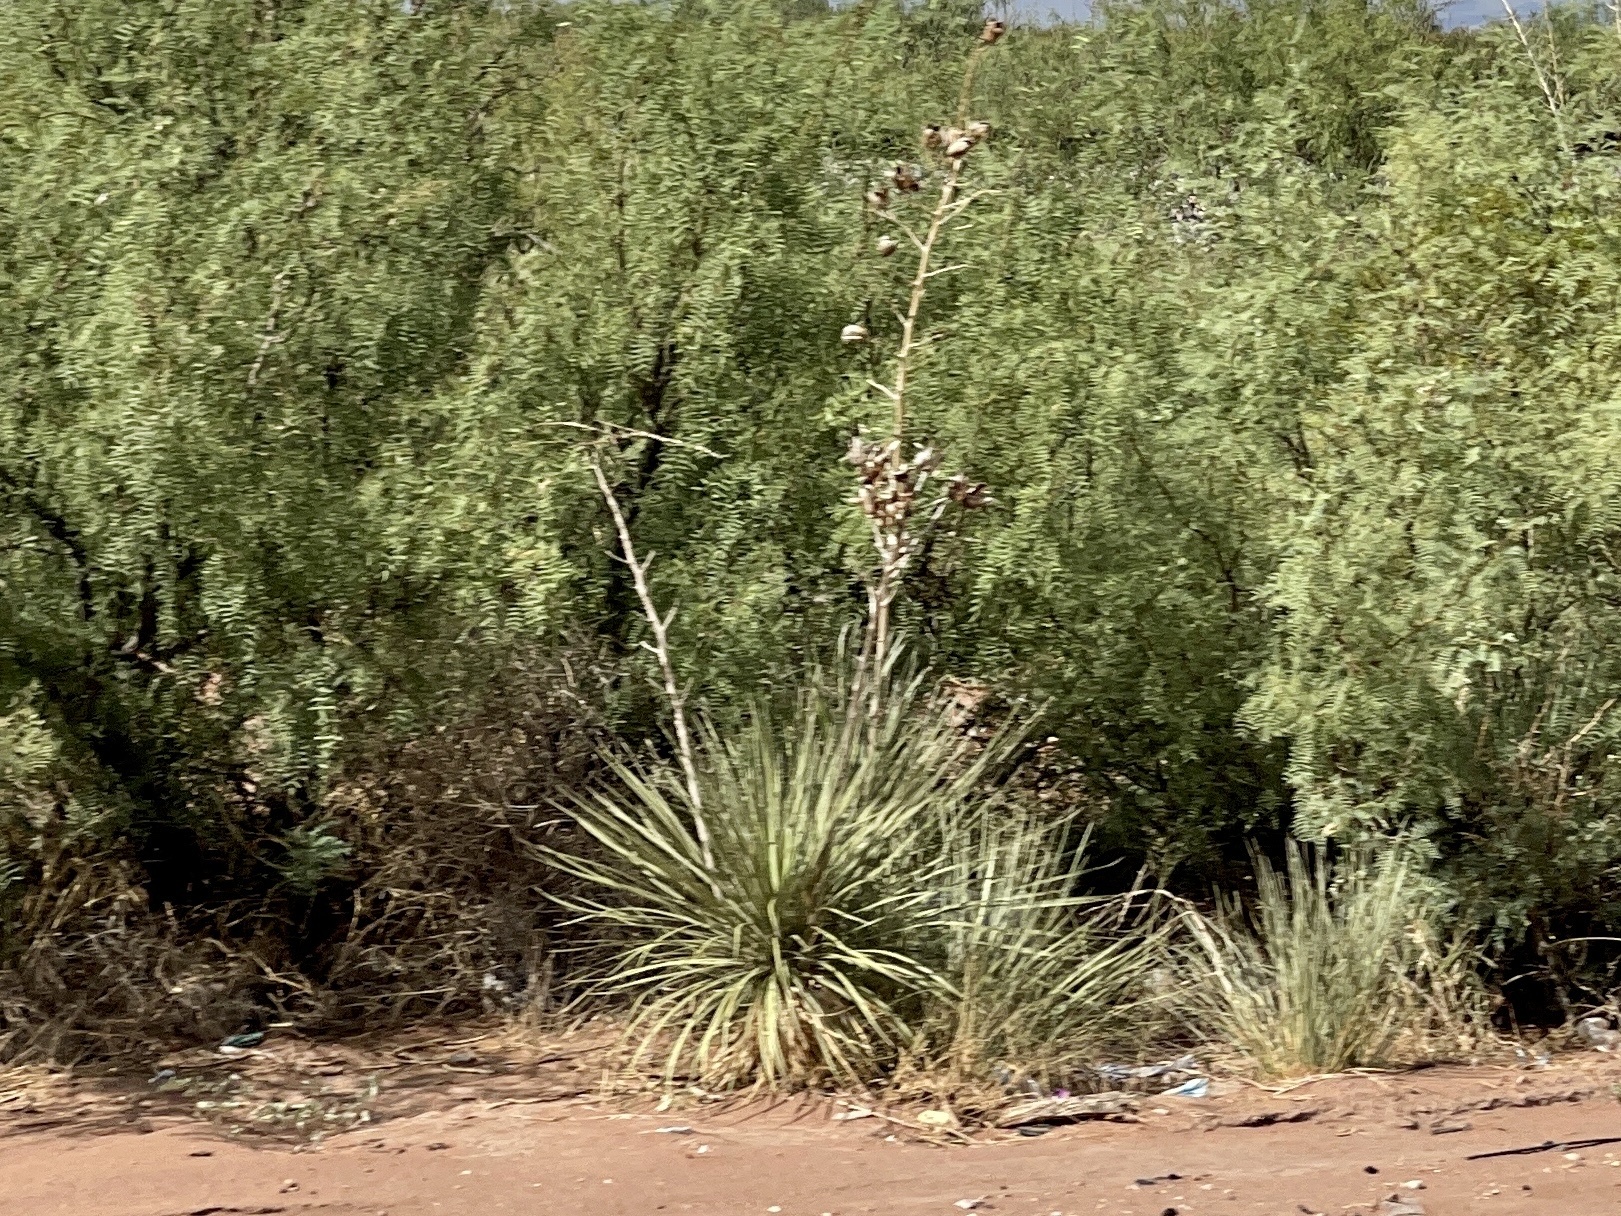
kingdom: Plantae
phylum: Tracheophyta
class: Liliopsida
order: Asparagales
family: Asparagaceae
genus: Yucca
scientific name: Yucca elata
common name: Palmella
